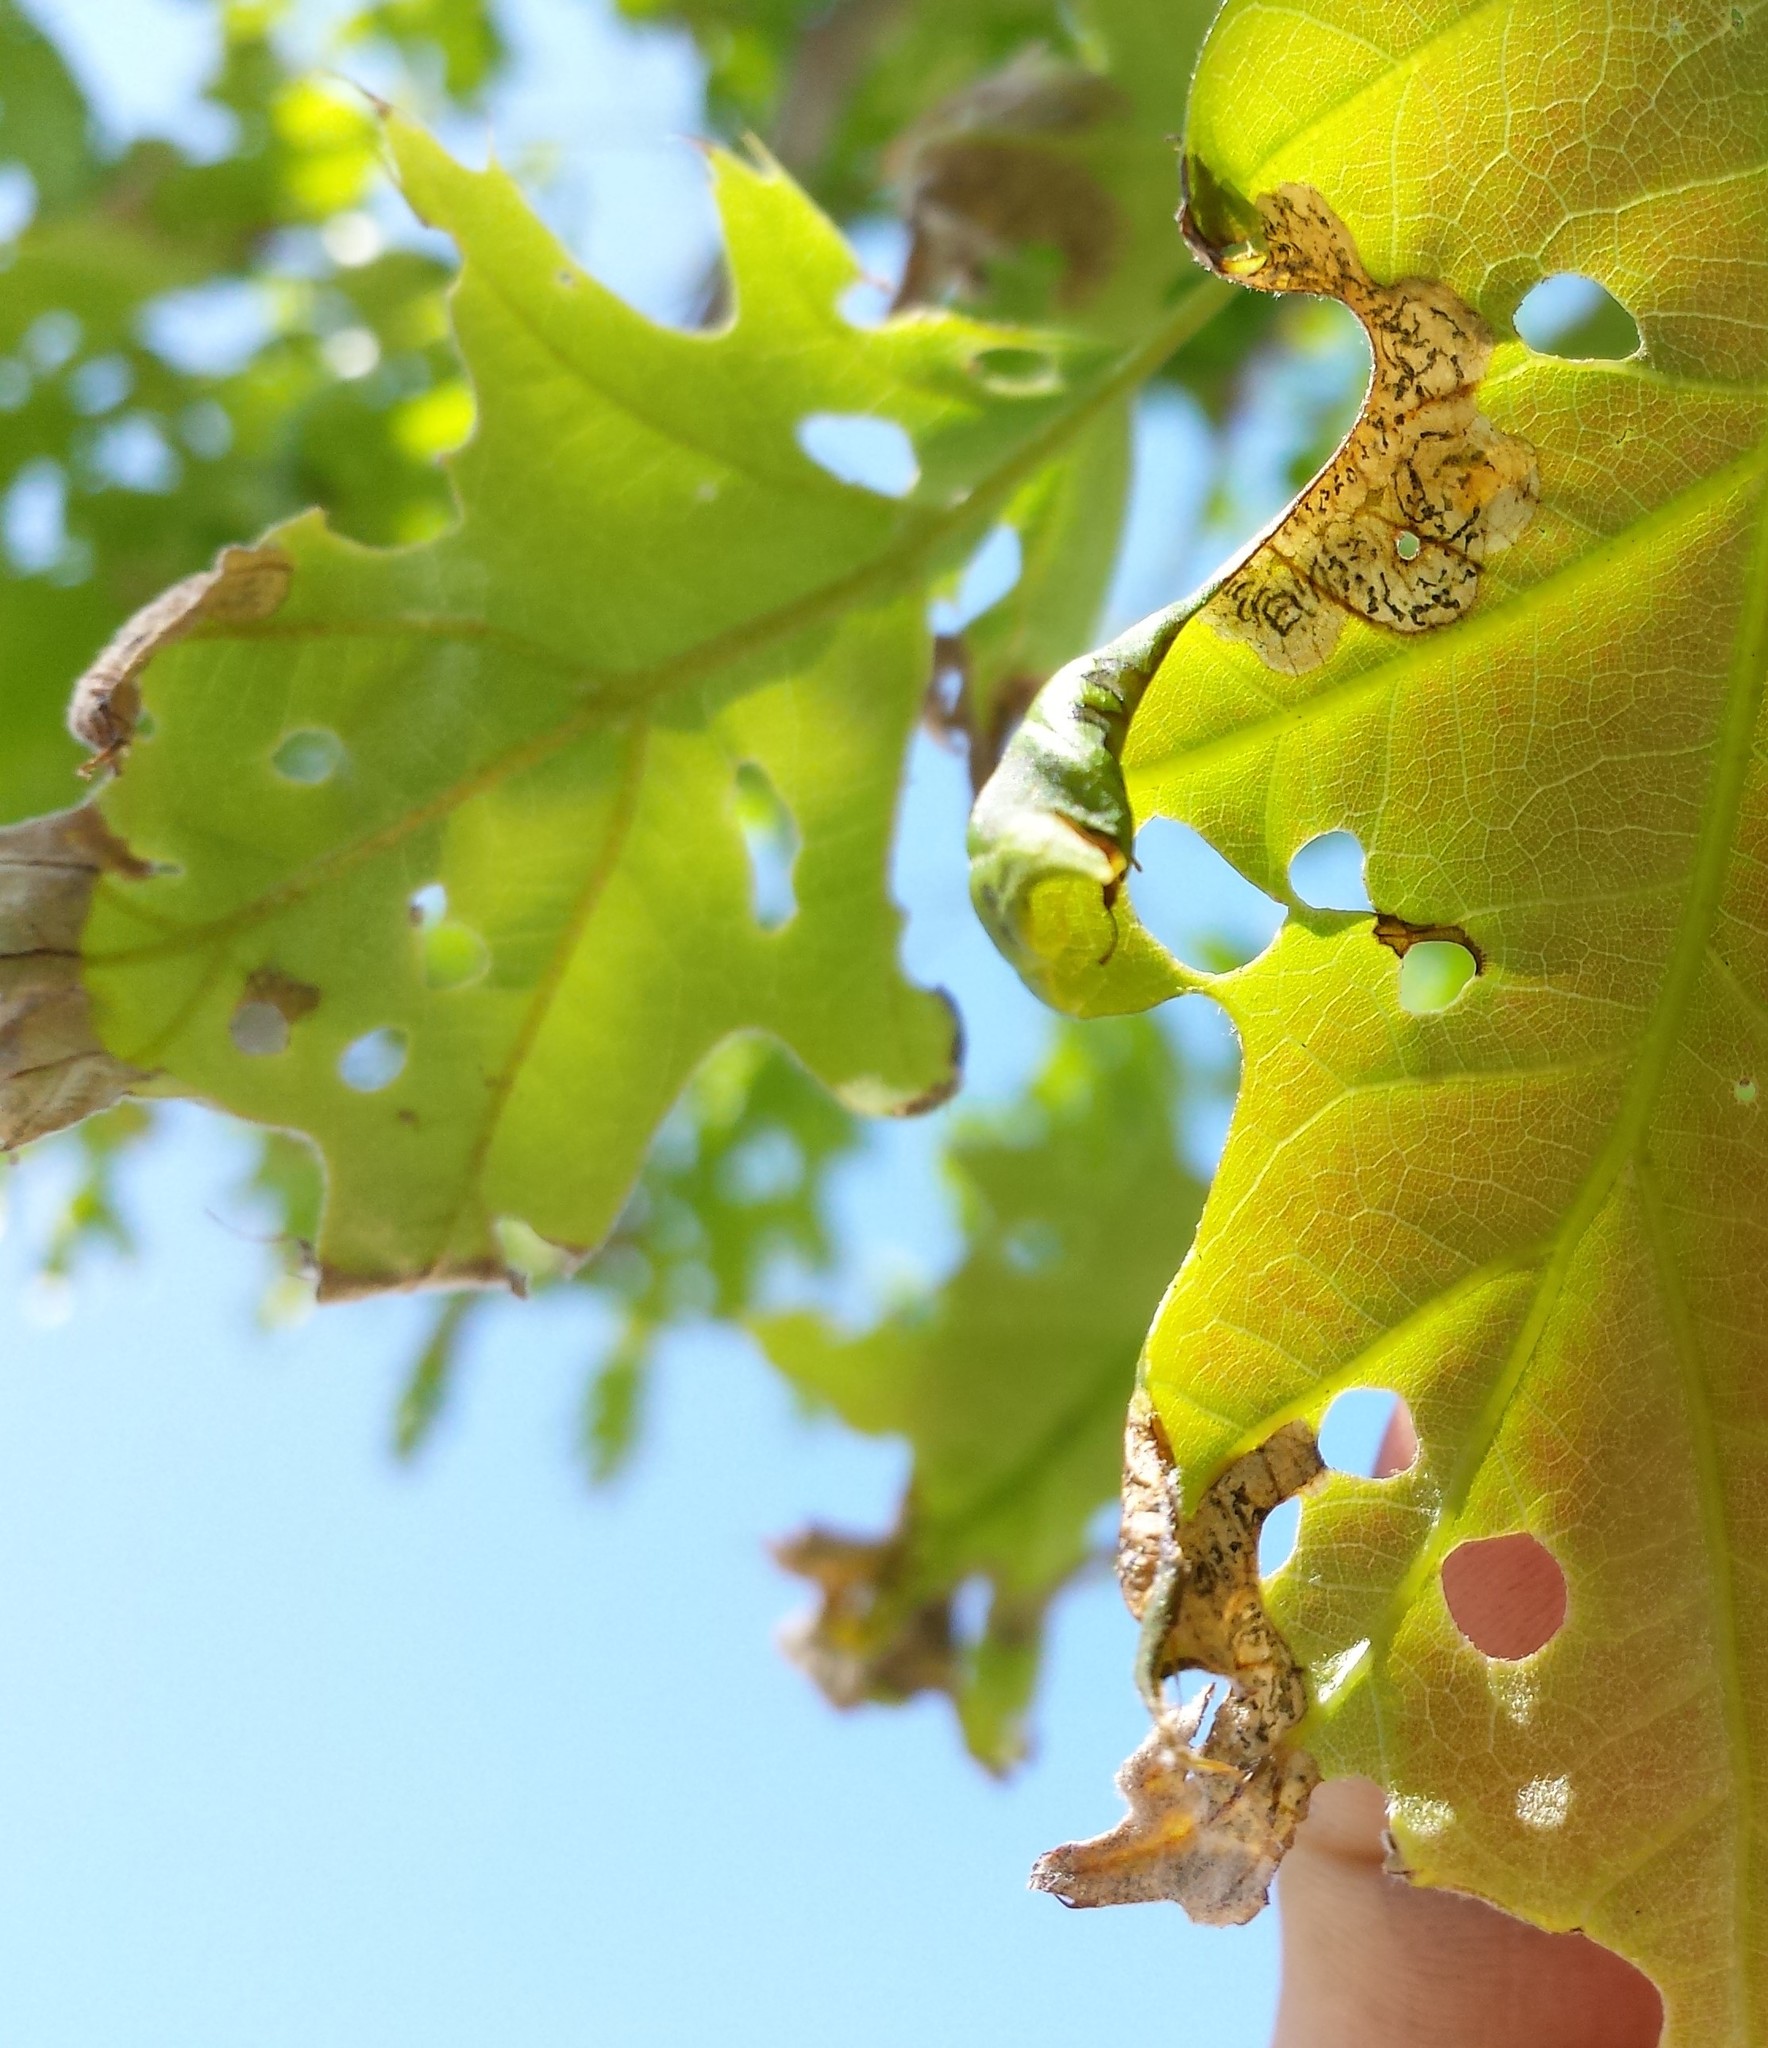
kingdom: Animalia
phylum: Arthropoda
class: Insecta
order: Diptera
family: Agromyzidae
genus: Japanagromyza
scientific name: Japanagromyza viridula
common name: Oak shothole leafminer
